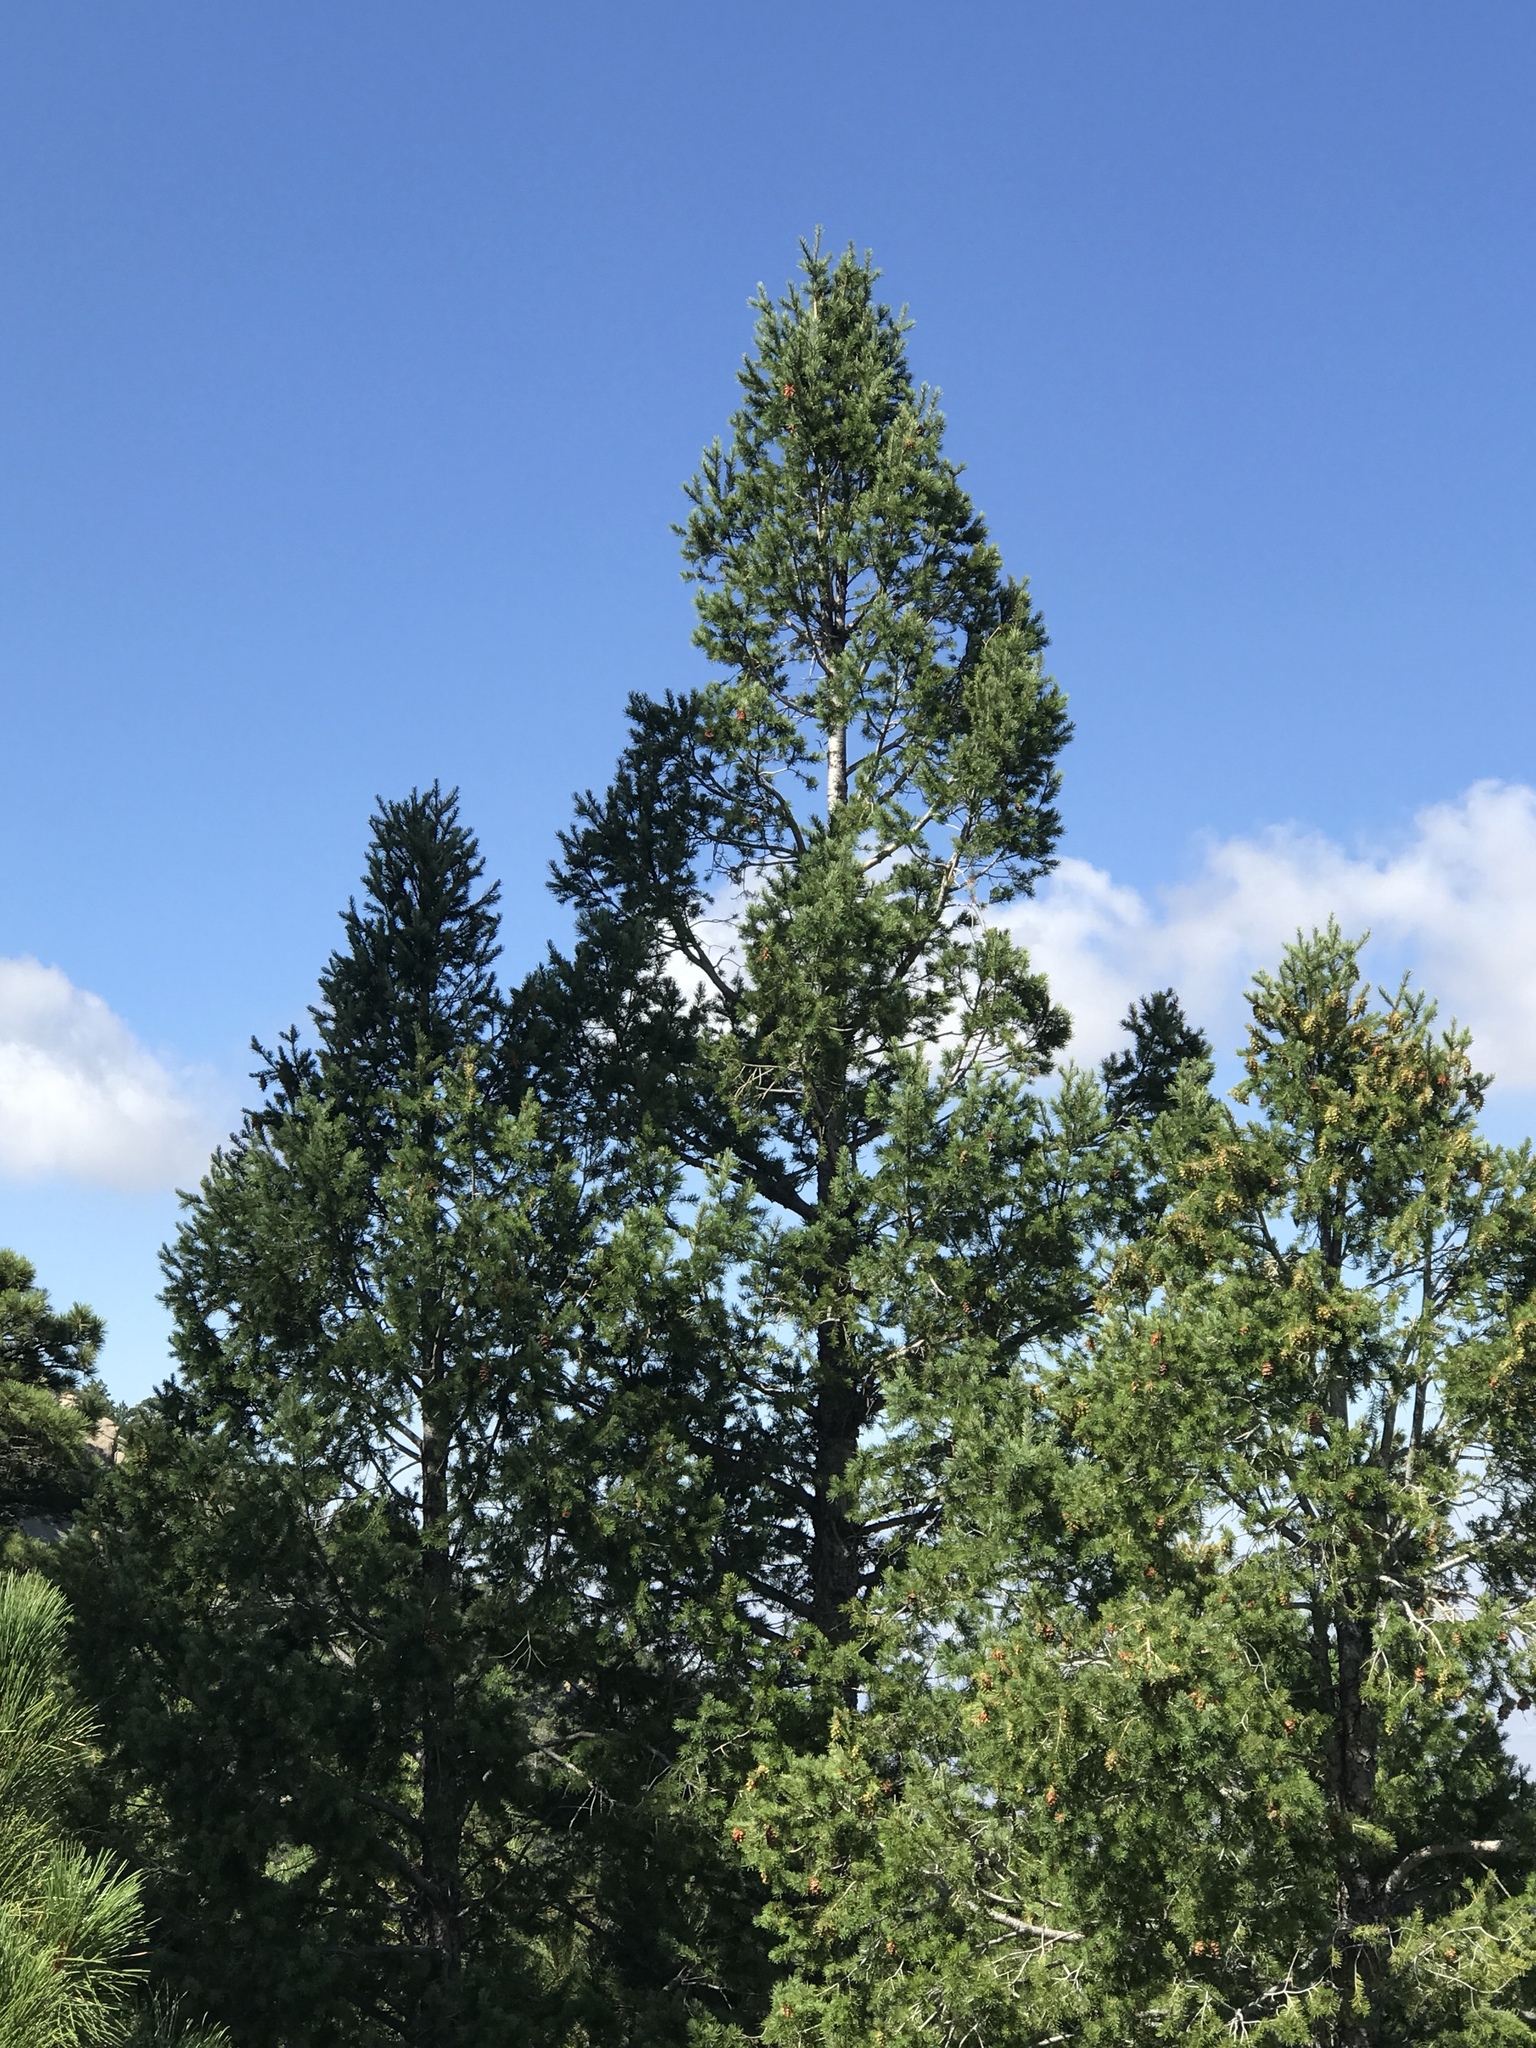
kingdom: Plantae
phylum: Tracheophyta
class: Pinopsida
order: Pinales
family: Pinaceae
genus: Pseudotsuga
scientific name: Pseudotsuga menziesii
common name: Douglas fir
